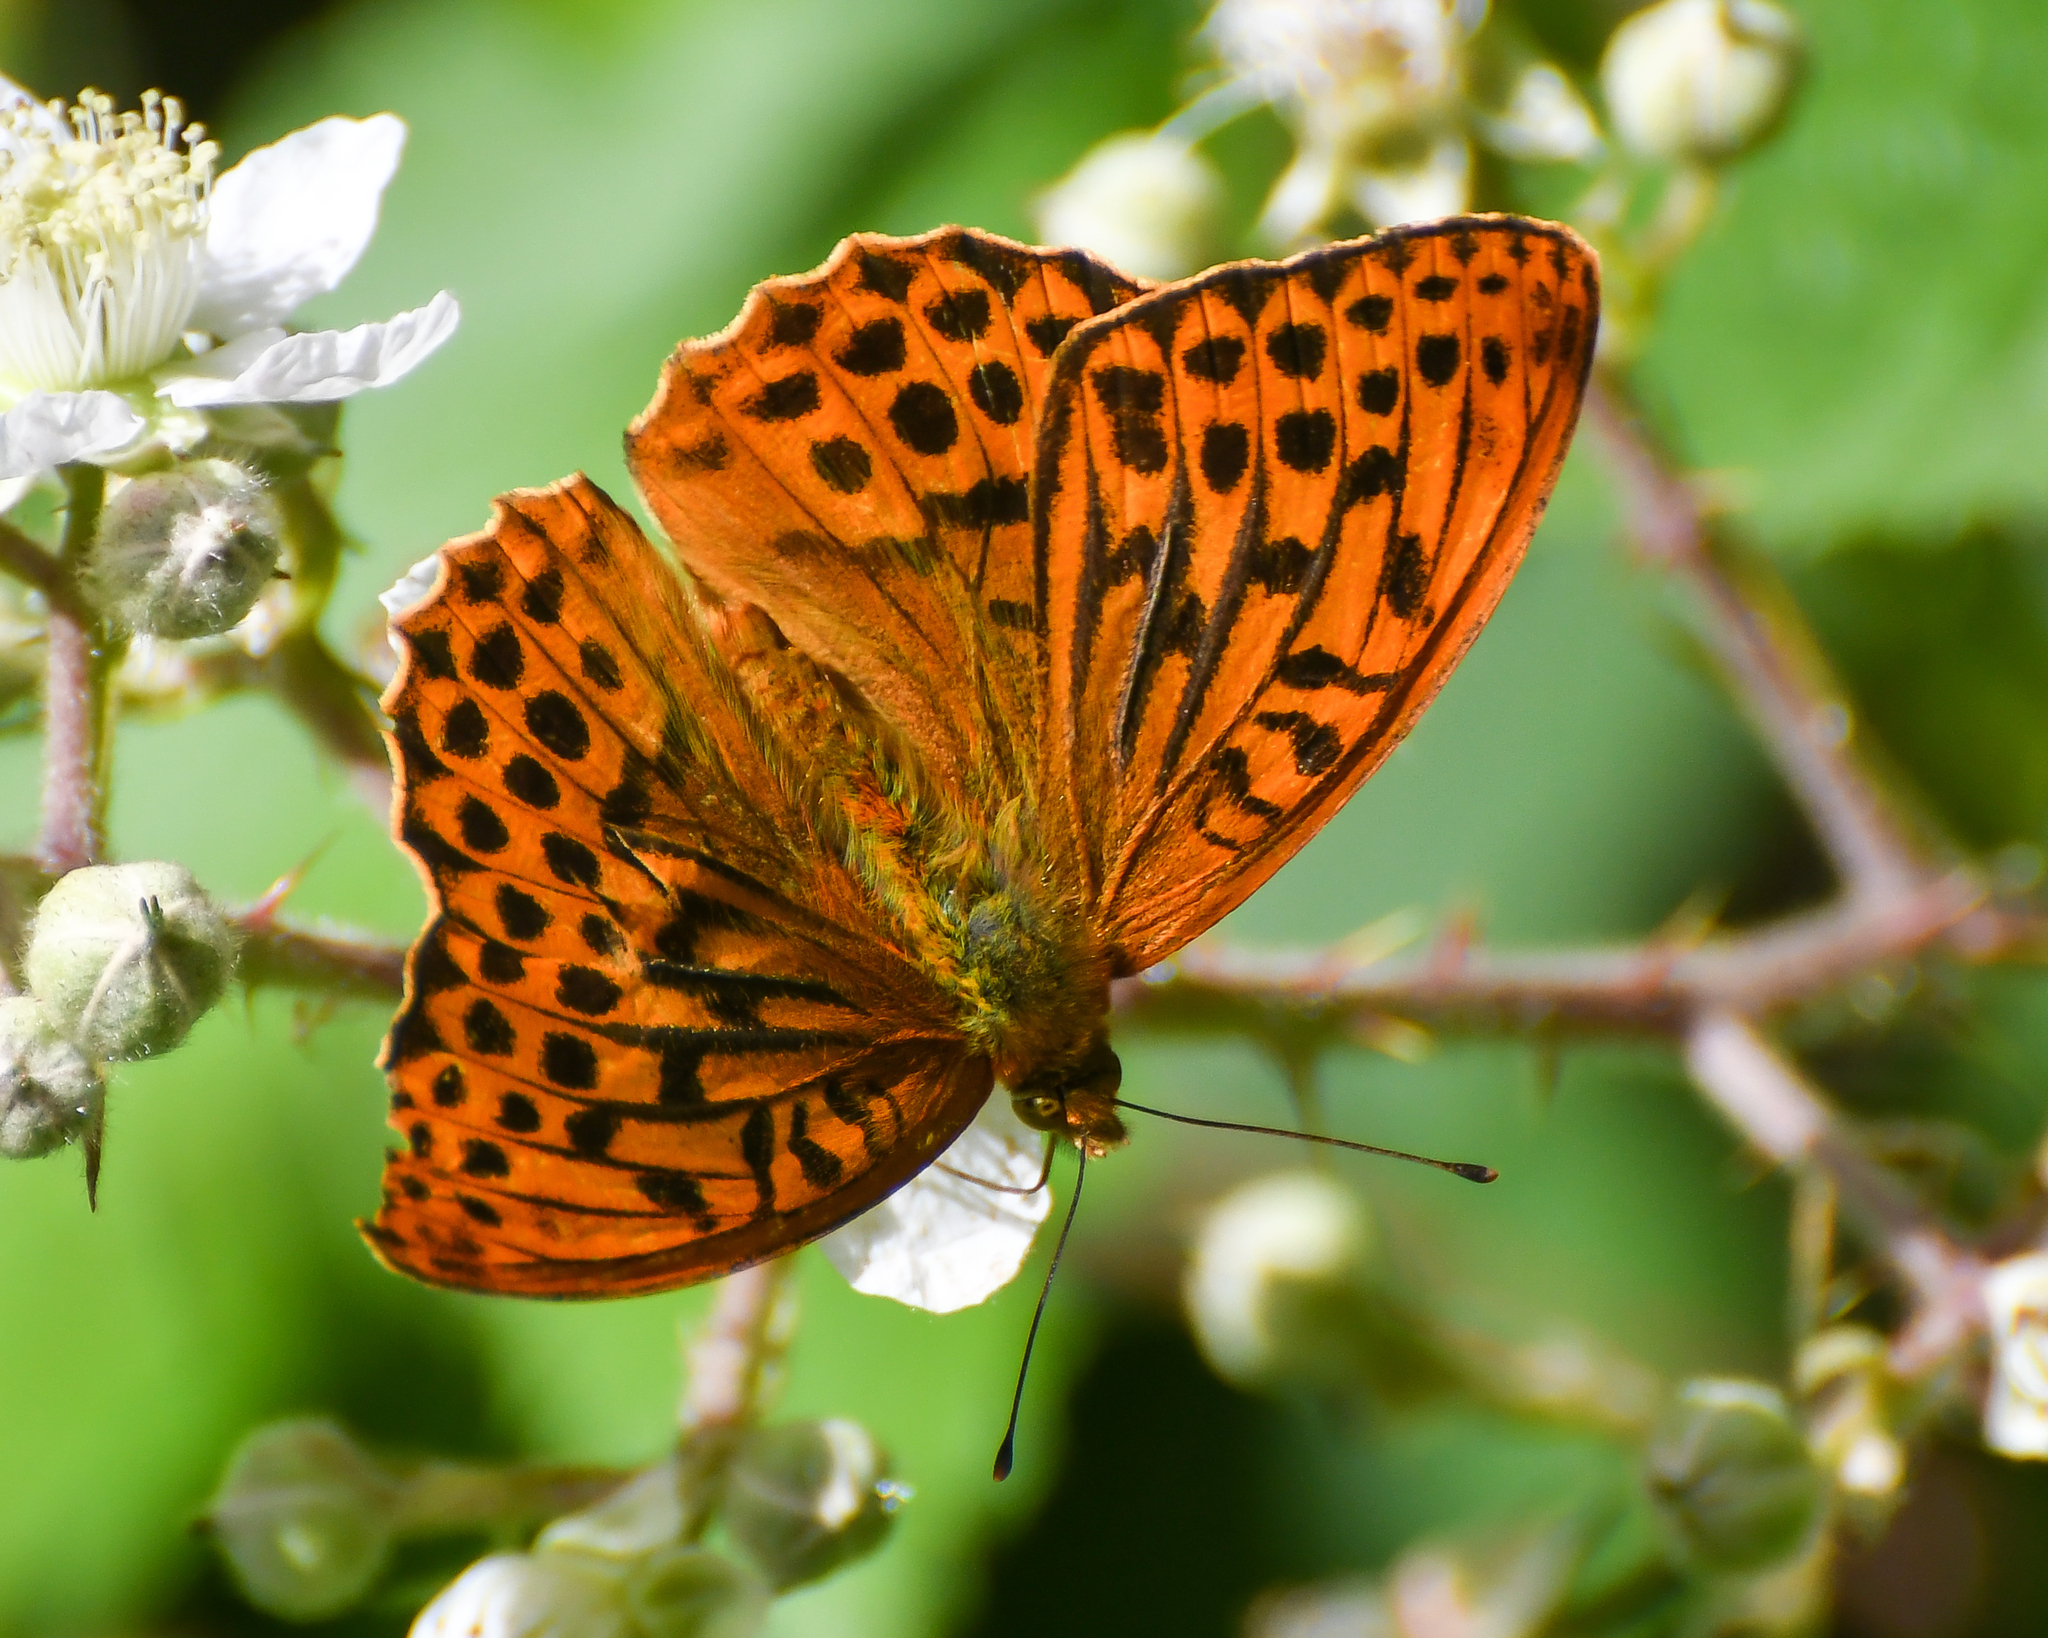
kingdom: Animalia
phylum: Arthropoda
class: Insecta
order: Lepidoptera
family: Nymphalidae
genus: Argynnis
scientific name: Argynnis paphia
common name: Silver-washed fritillary
